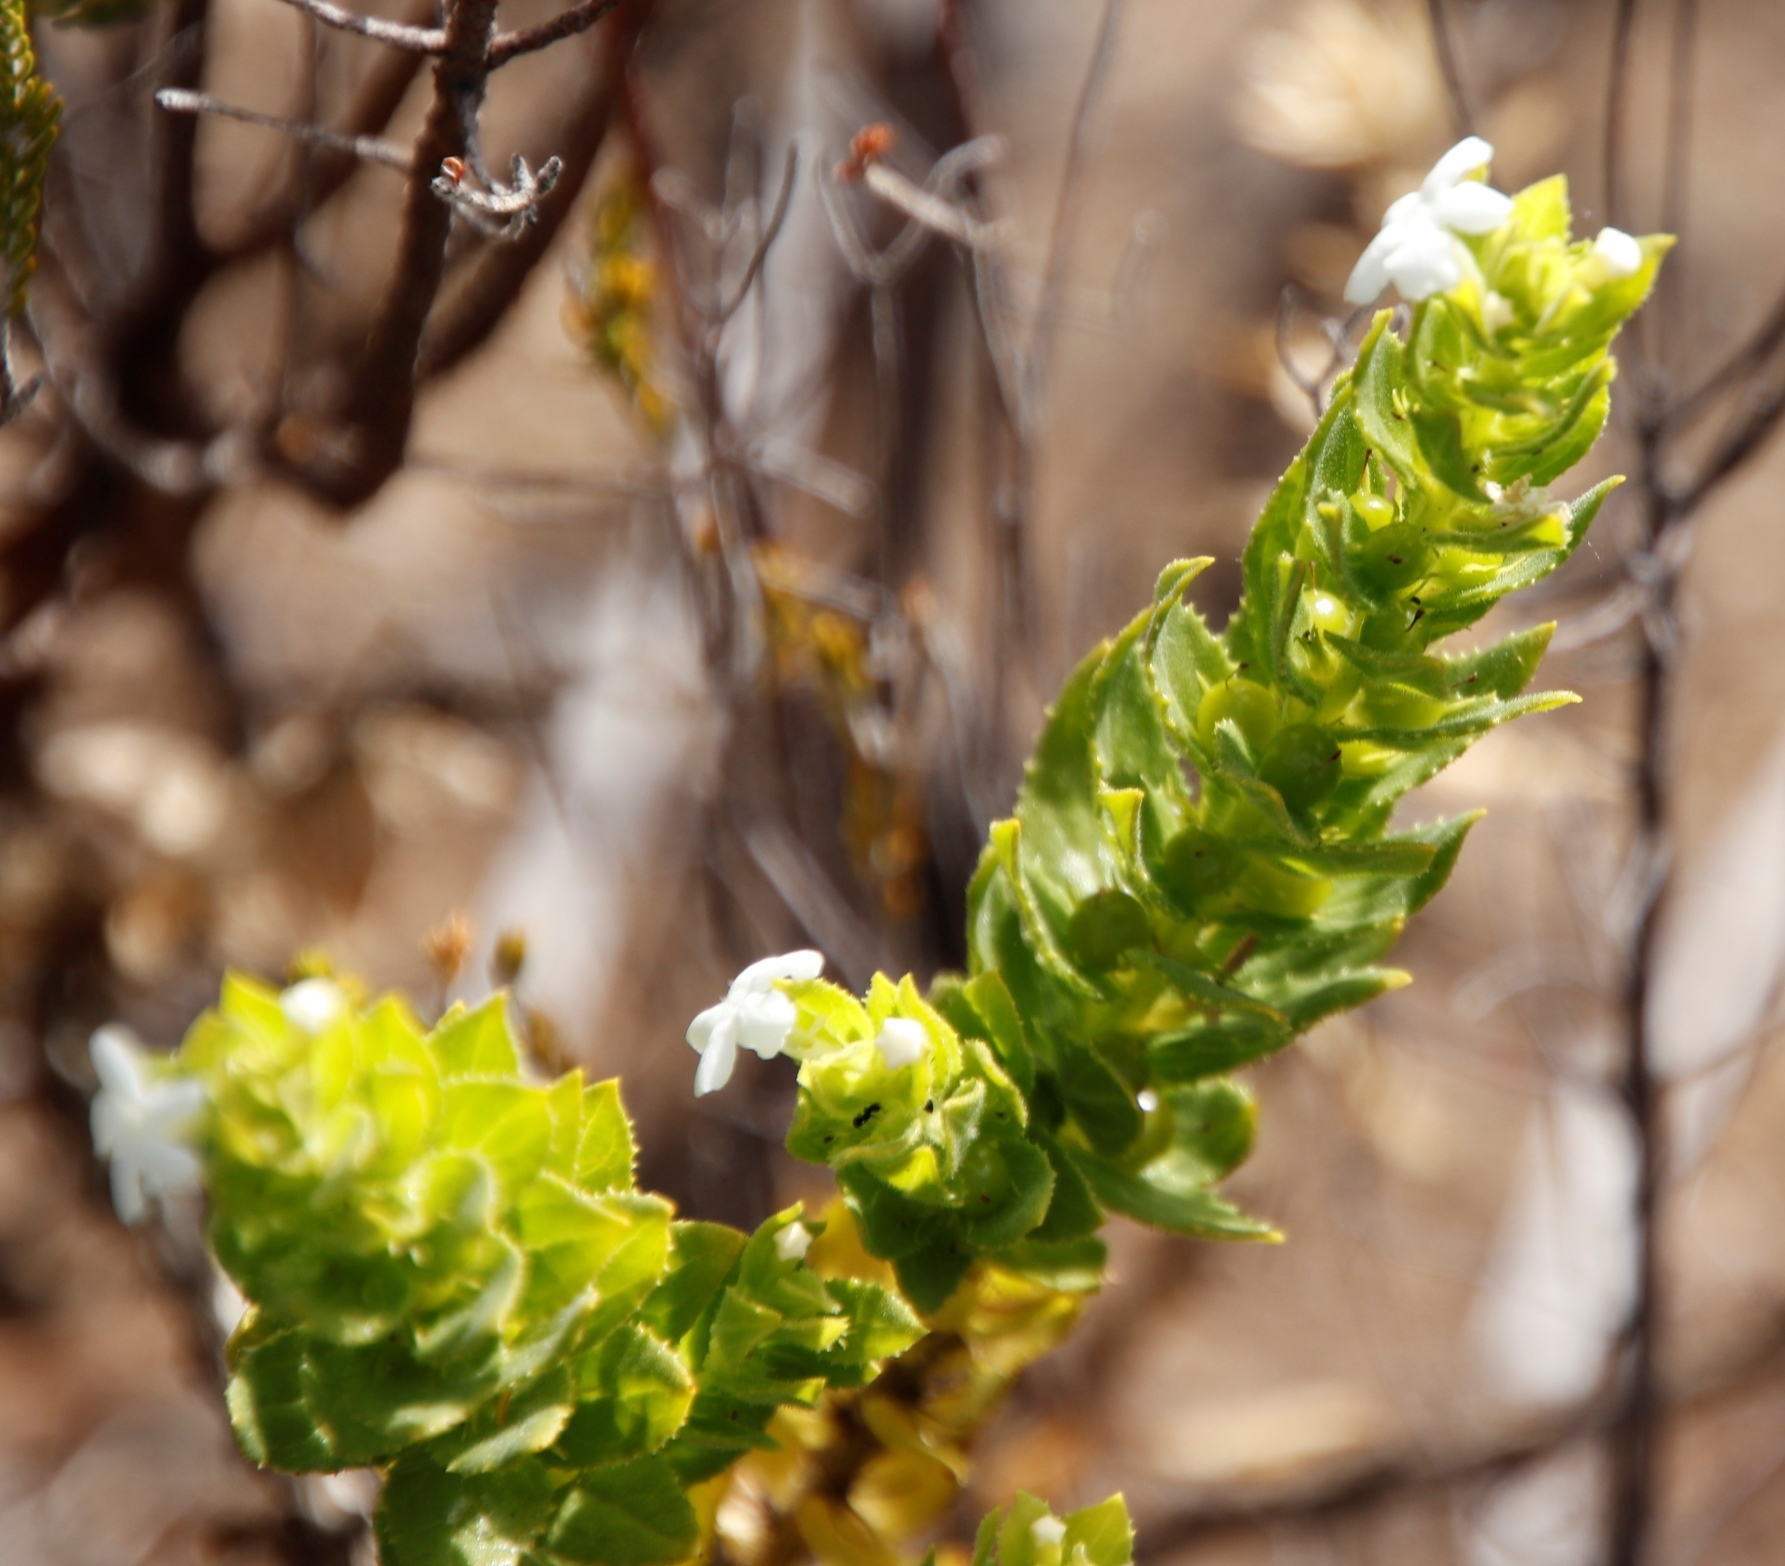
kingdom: Plantae
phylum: Tracheophyta
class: Magnoliopsida
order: Lamiales
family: Scrophulariaceae
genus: Oftia
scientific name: Oftia africana
